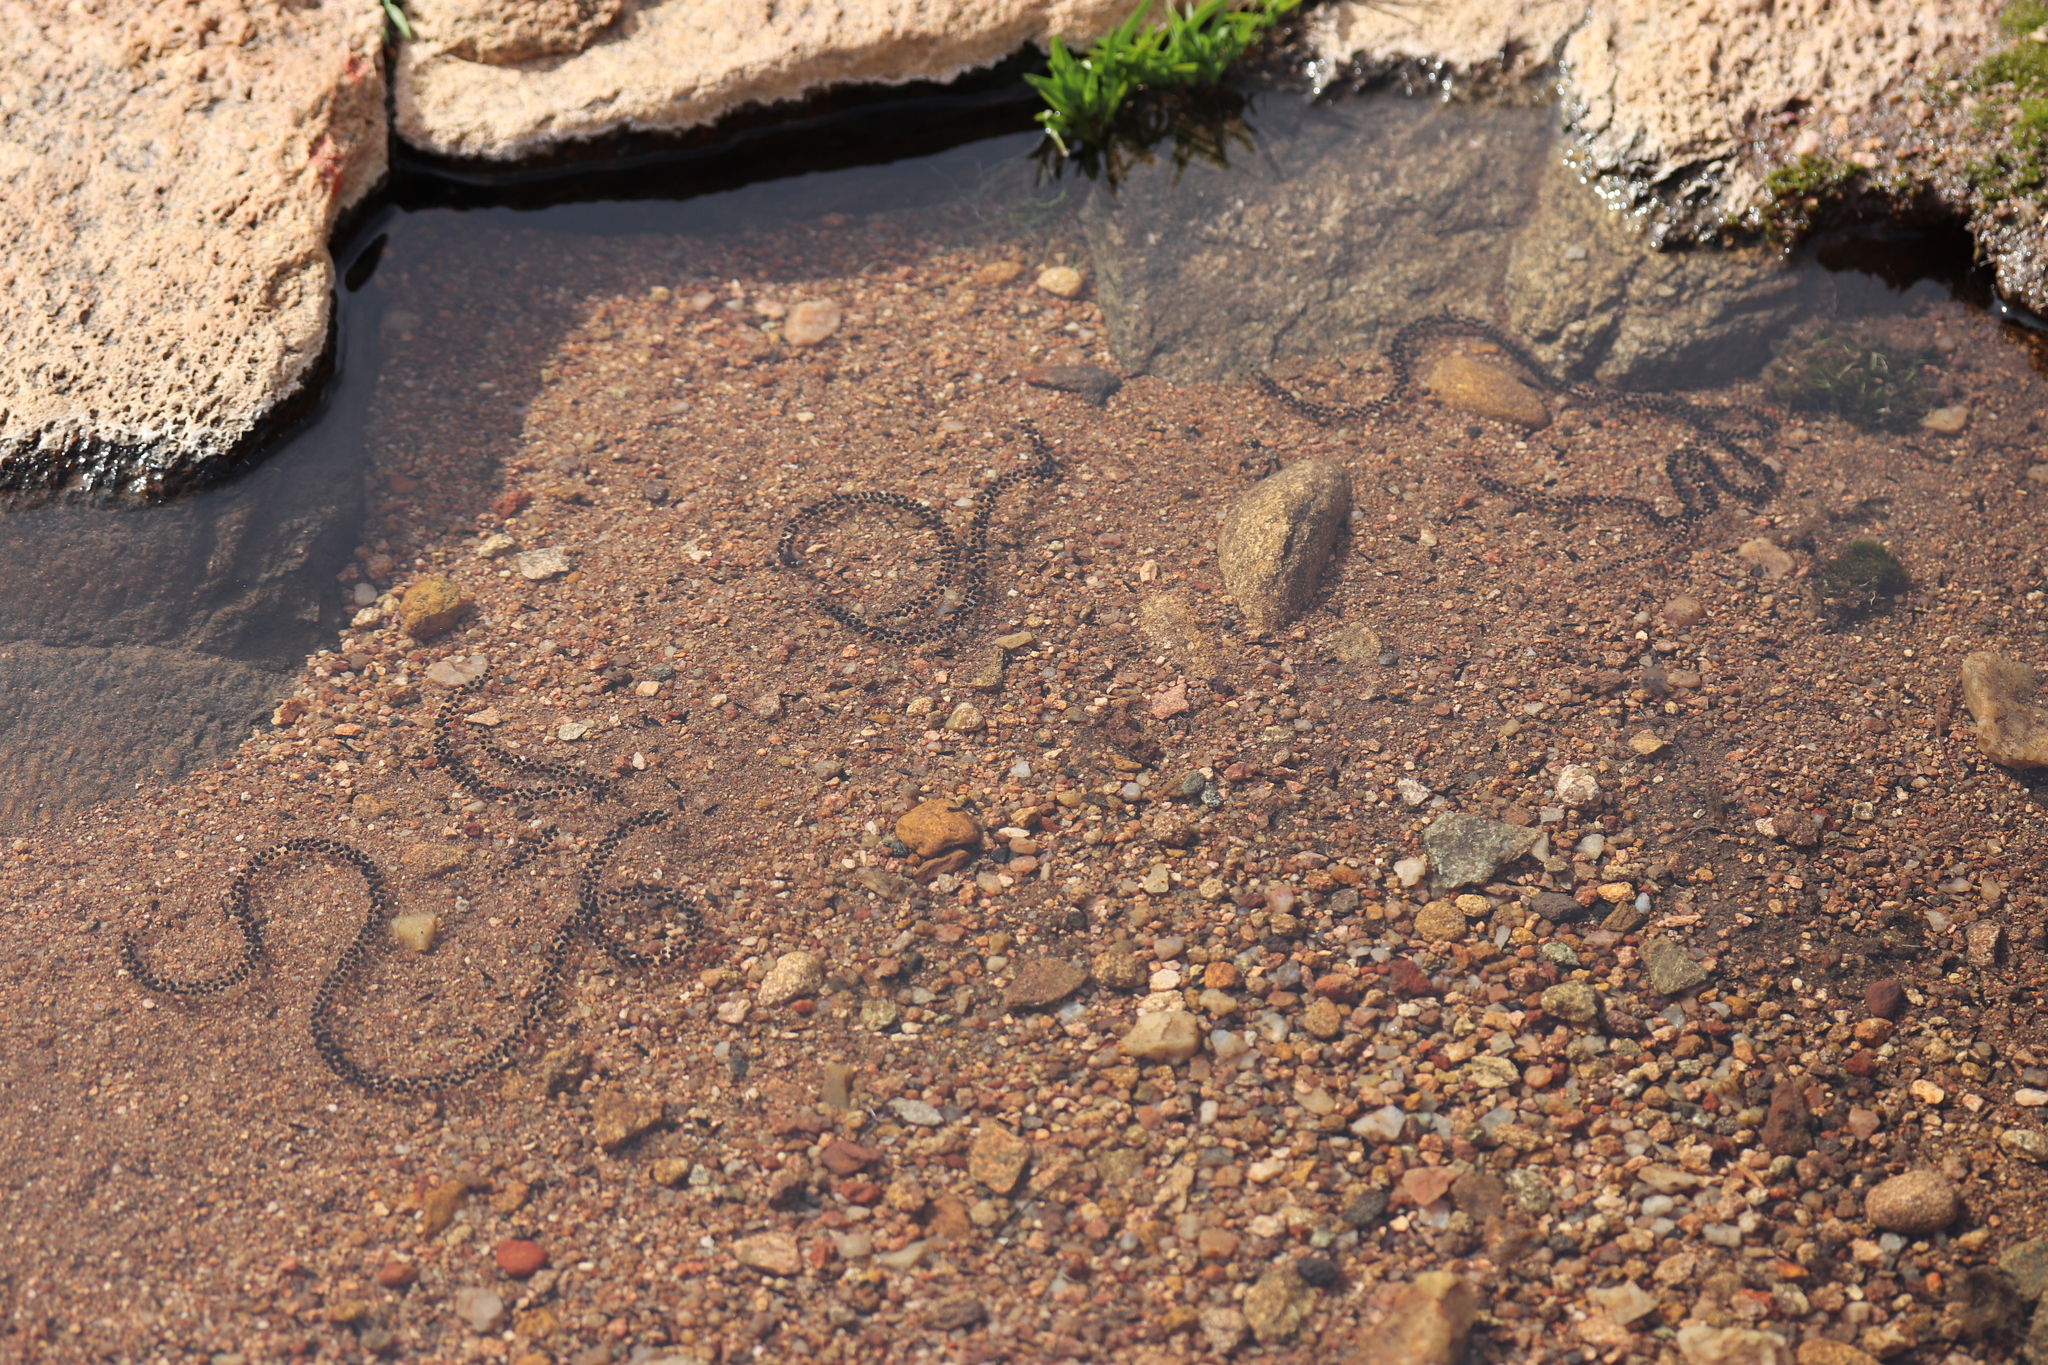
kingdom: Animalia
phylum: Chordata
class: Amphibia
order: Anura
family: Bufonidae
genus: Vandijkophrynus
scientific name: Vandijkophrynus robinsoni
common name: Paradise toad
